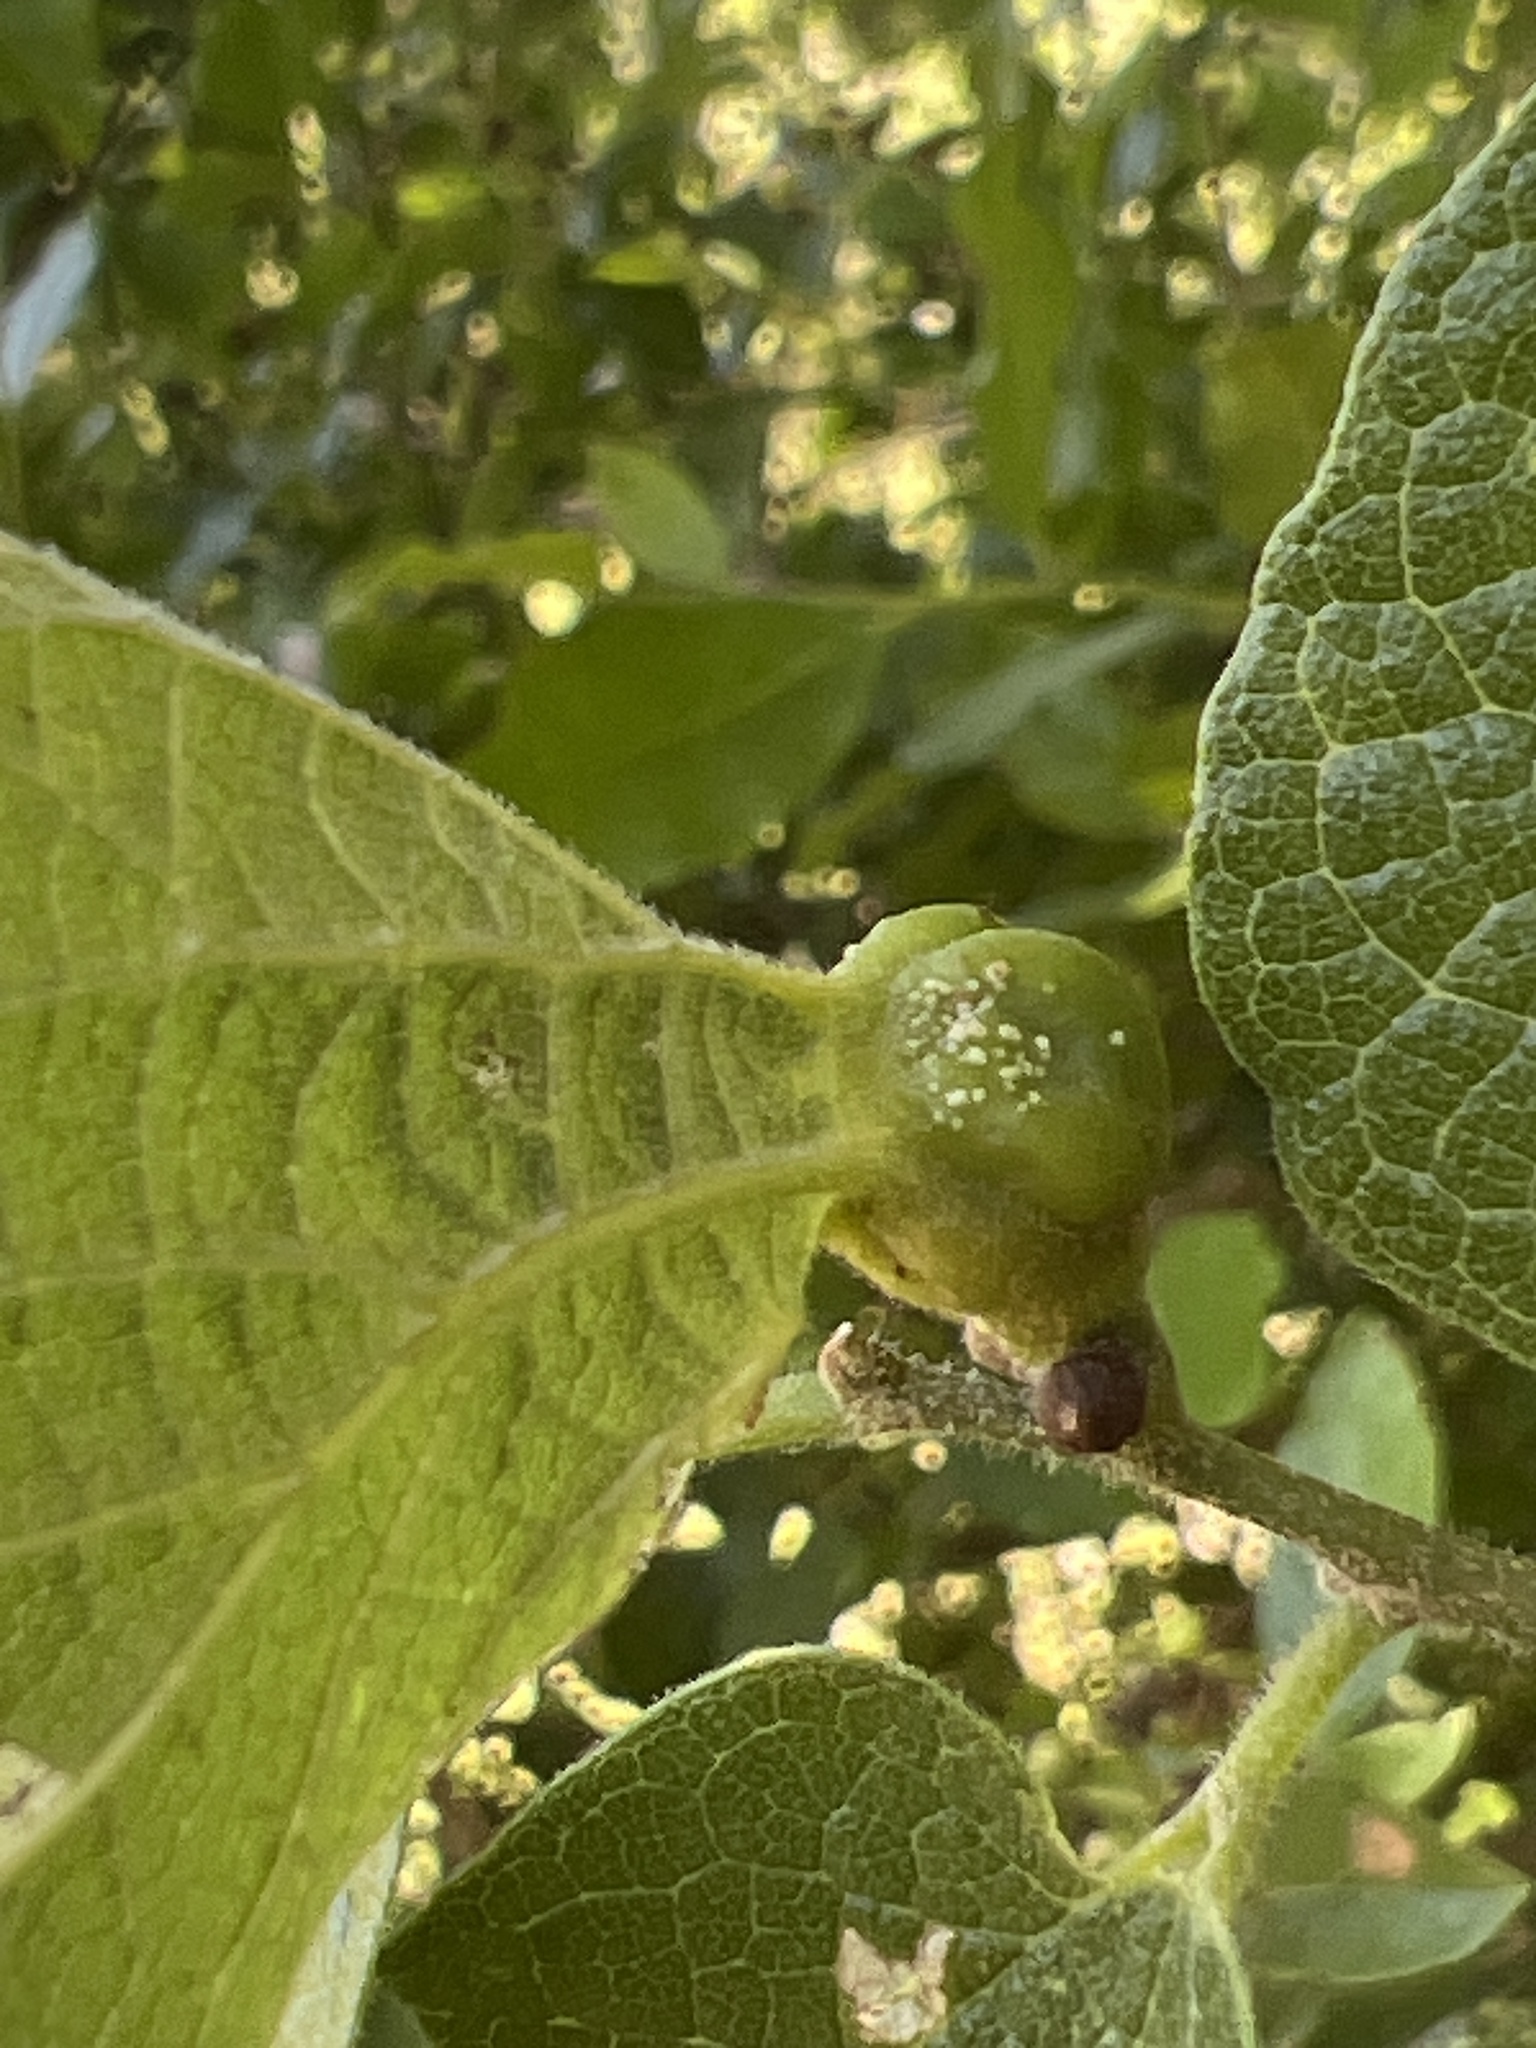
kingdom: Animalia
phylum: Arthropoda
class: Insecta
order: Hemiptera
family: Aphalaridae
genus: Pachypsylla
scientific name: Pachypsylla venusta
